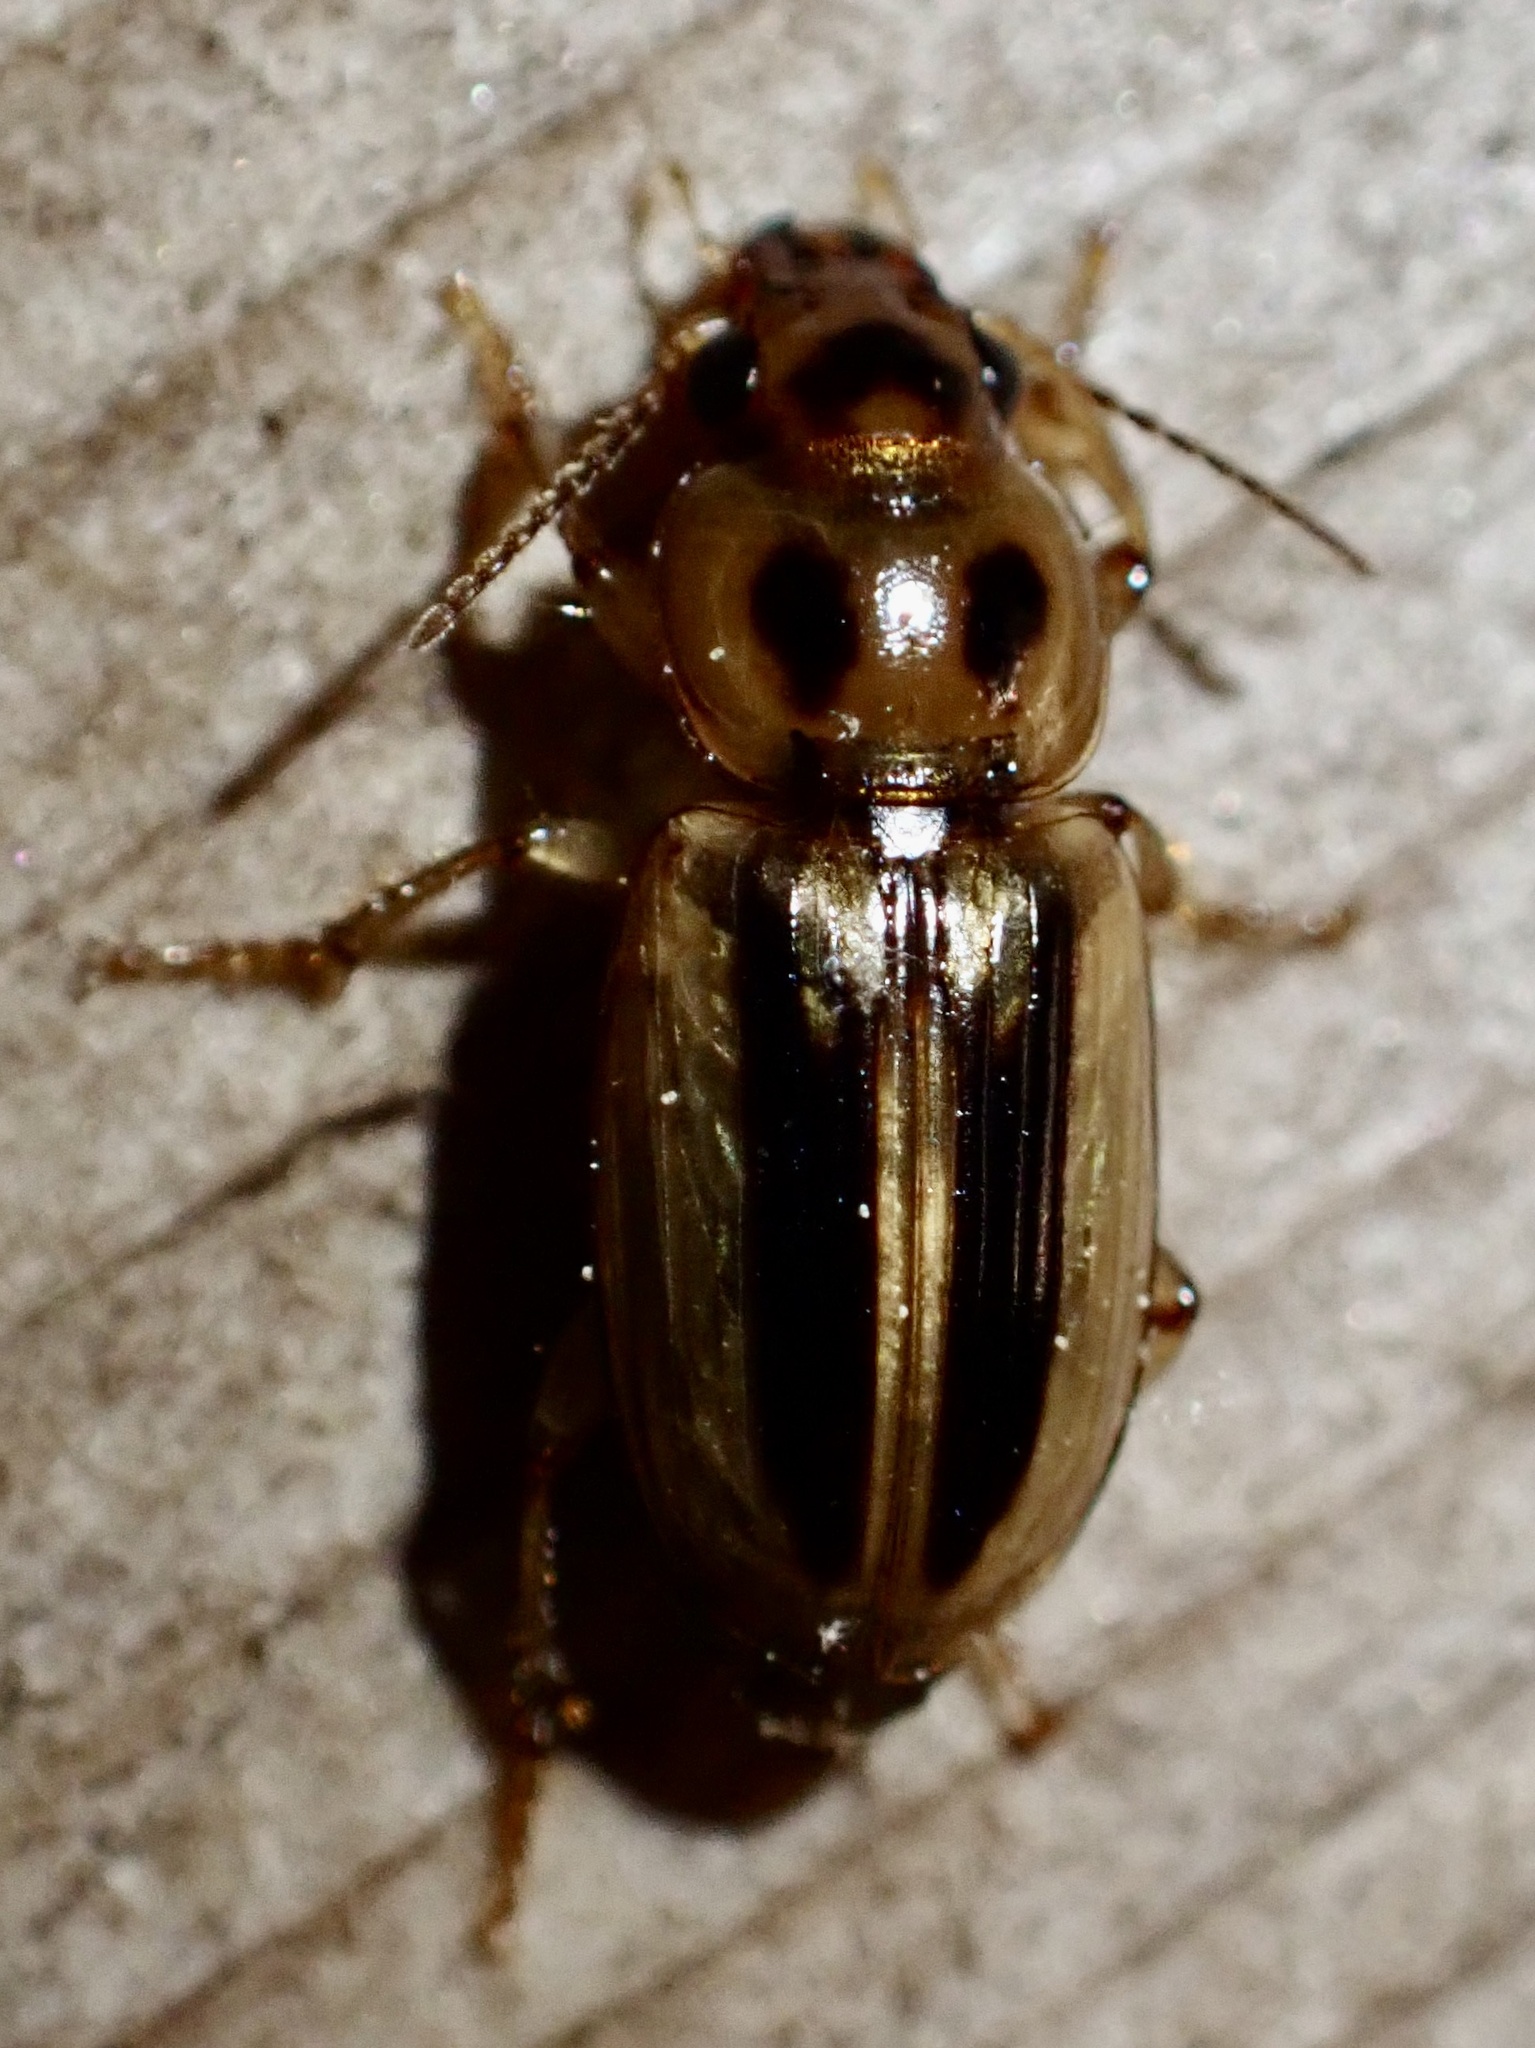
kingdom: Animalia
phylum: Arthropoda
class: Insecta
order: Coleoptera
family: Carabidae
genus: Stenolophus
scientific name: Stenolophus lineola
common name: Lined stenolophus
